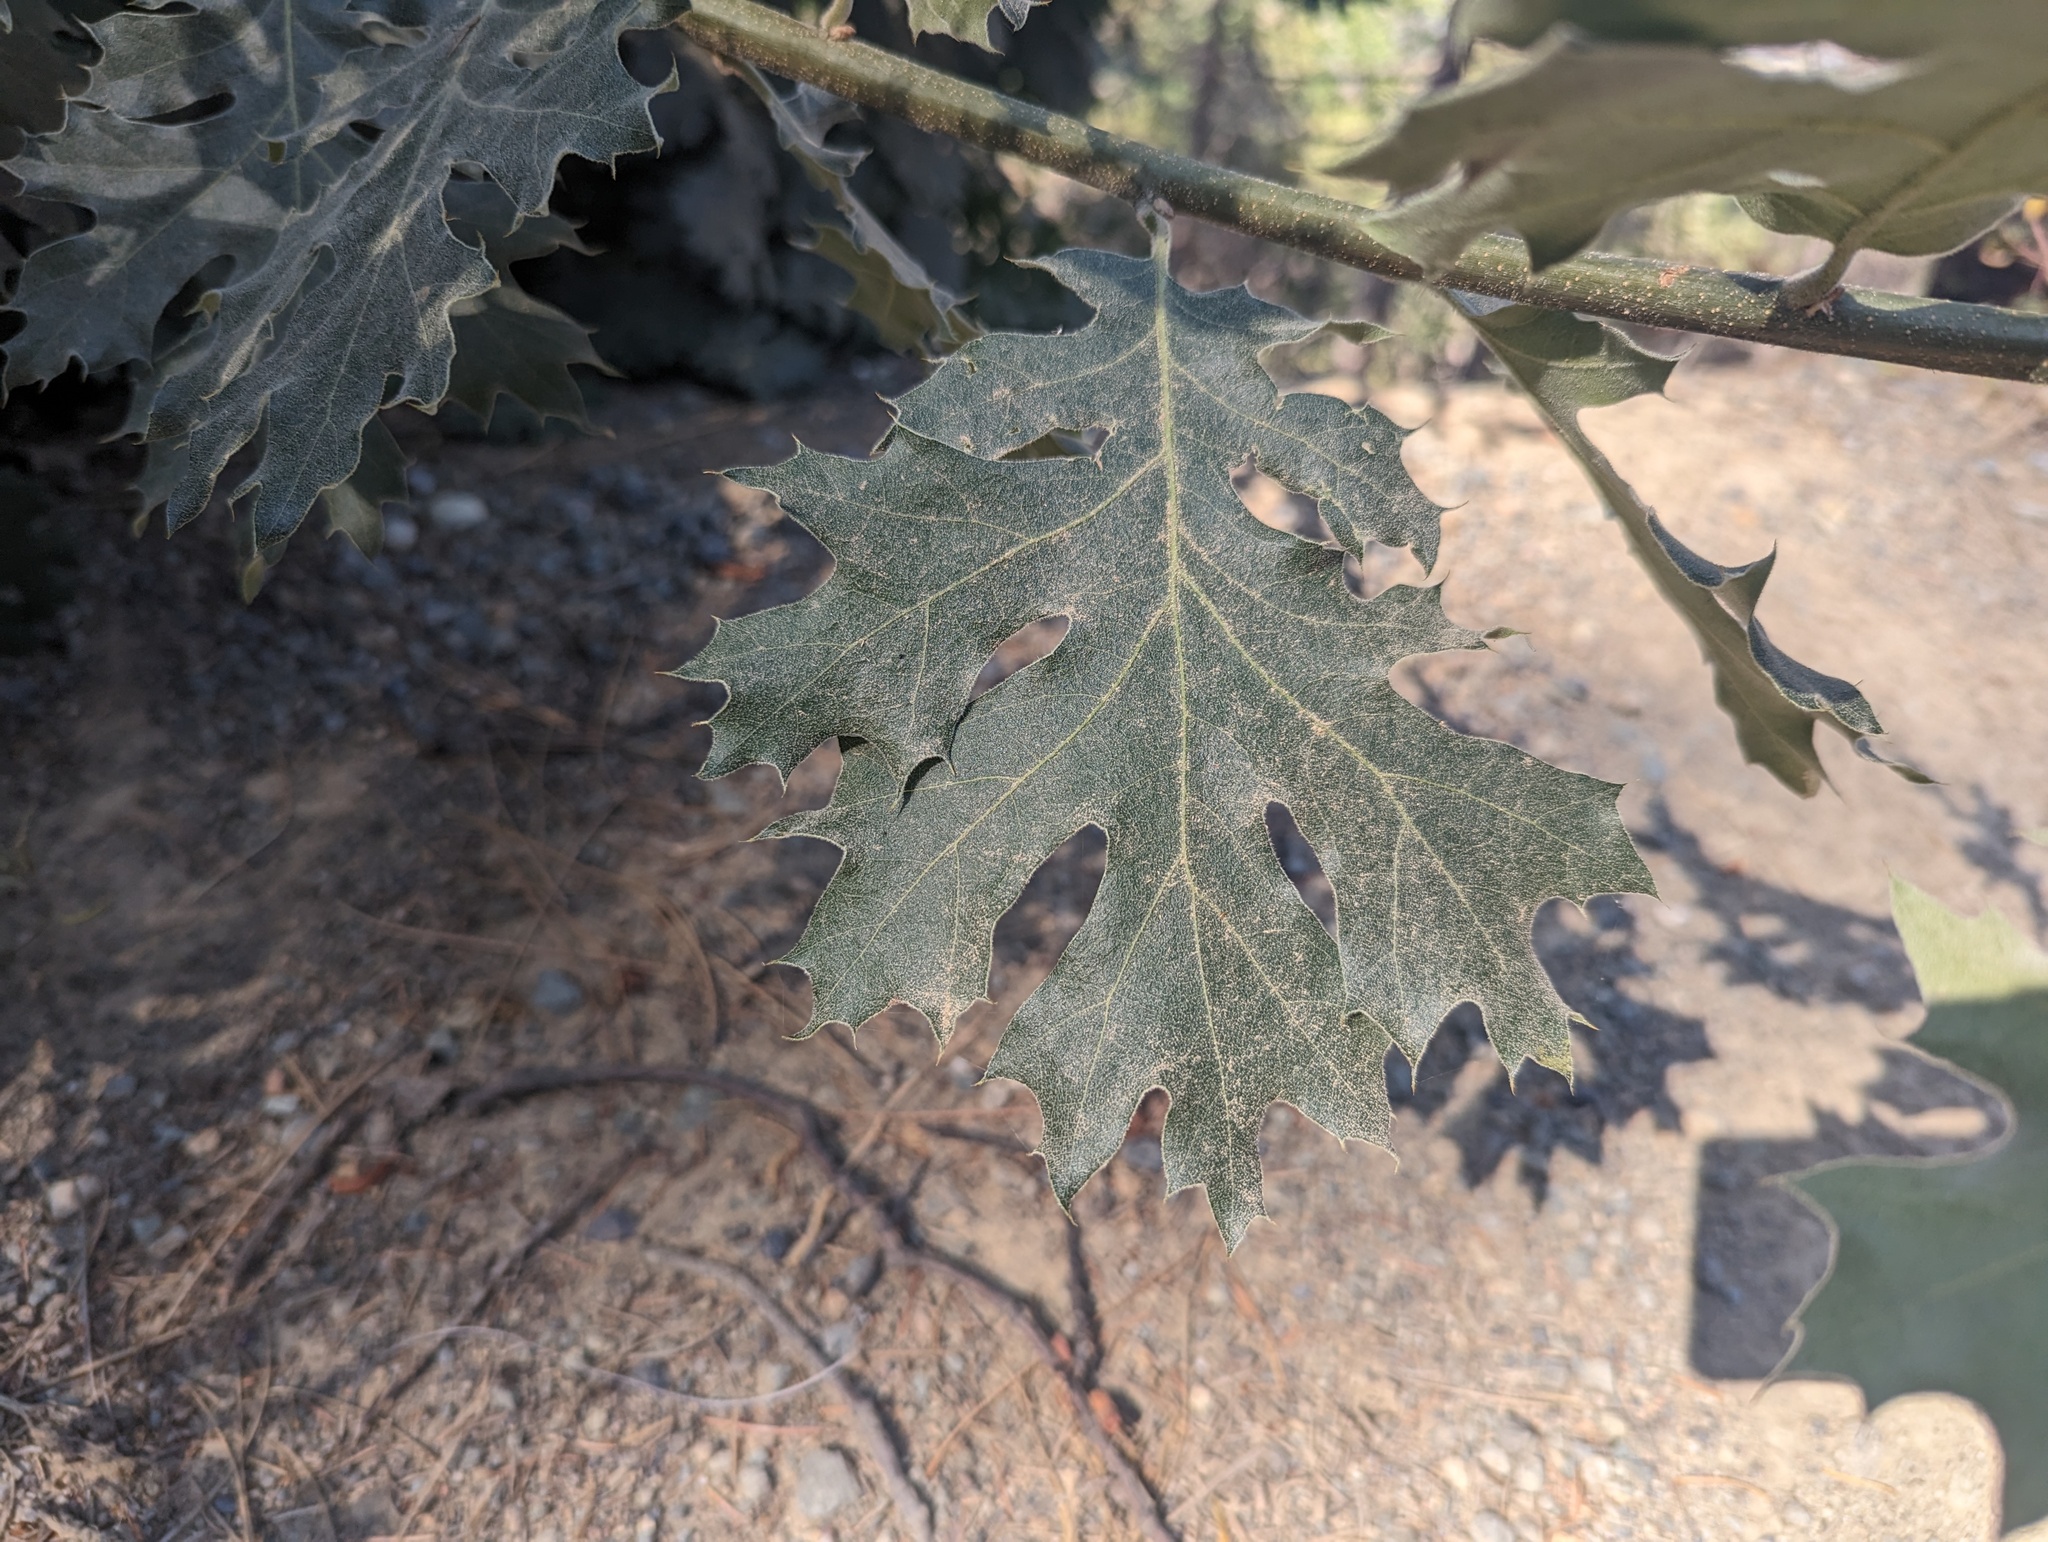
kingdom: Plantae
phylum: Tracheophyta
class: Magnoliopsida
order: Fagales
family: Fagaceae
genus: Quercus
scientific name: Quercus kelloggii
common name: California black oak
